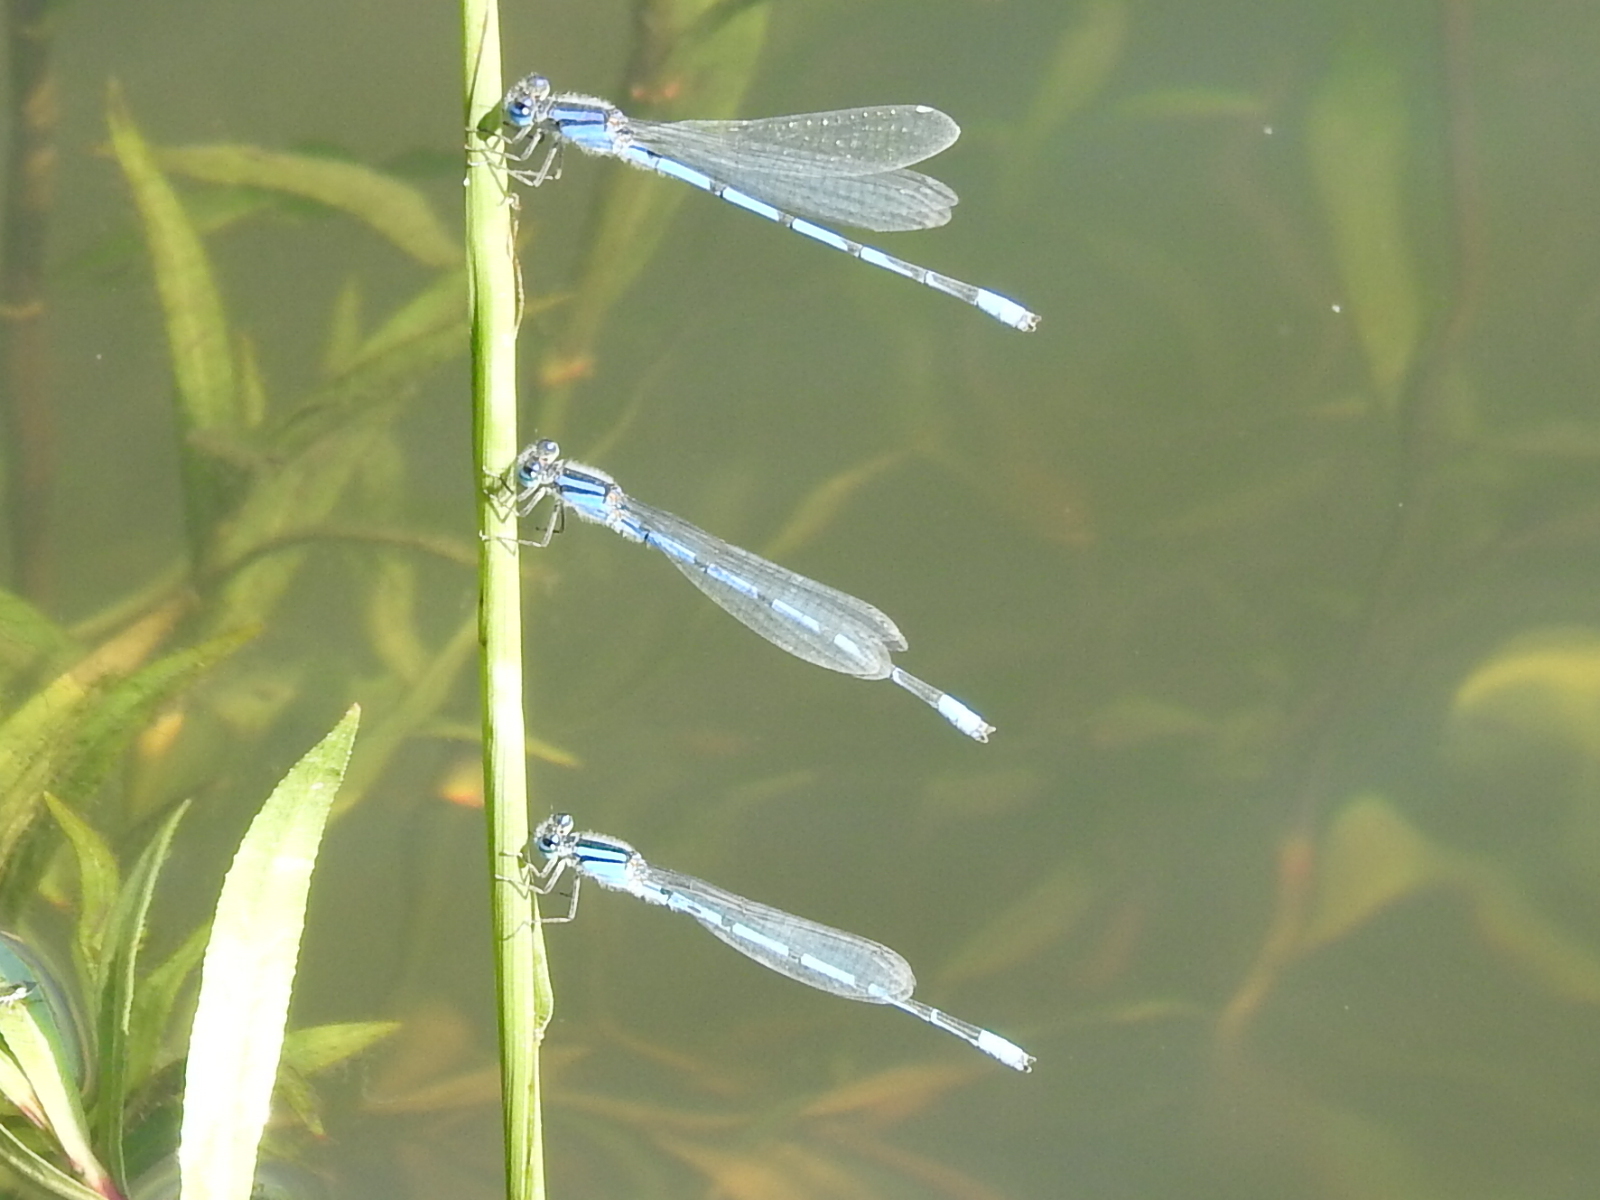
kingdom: Animalia
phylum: Arthropoda
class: Insecta
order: Odonata
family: Coenagrionidae
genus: Enallagma
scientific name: Enallagma civile
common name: Damselfly
